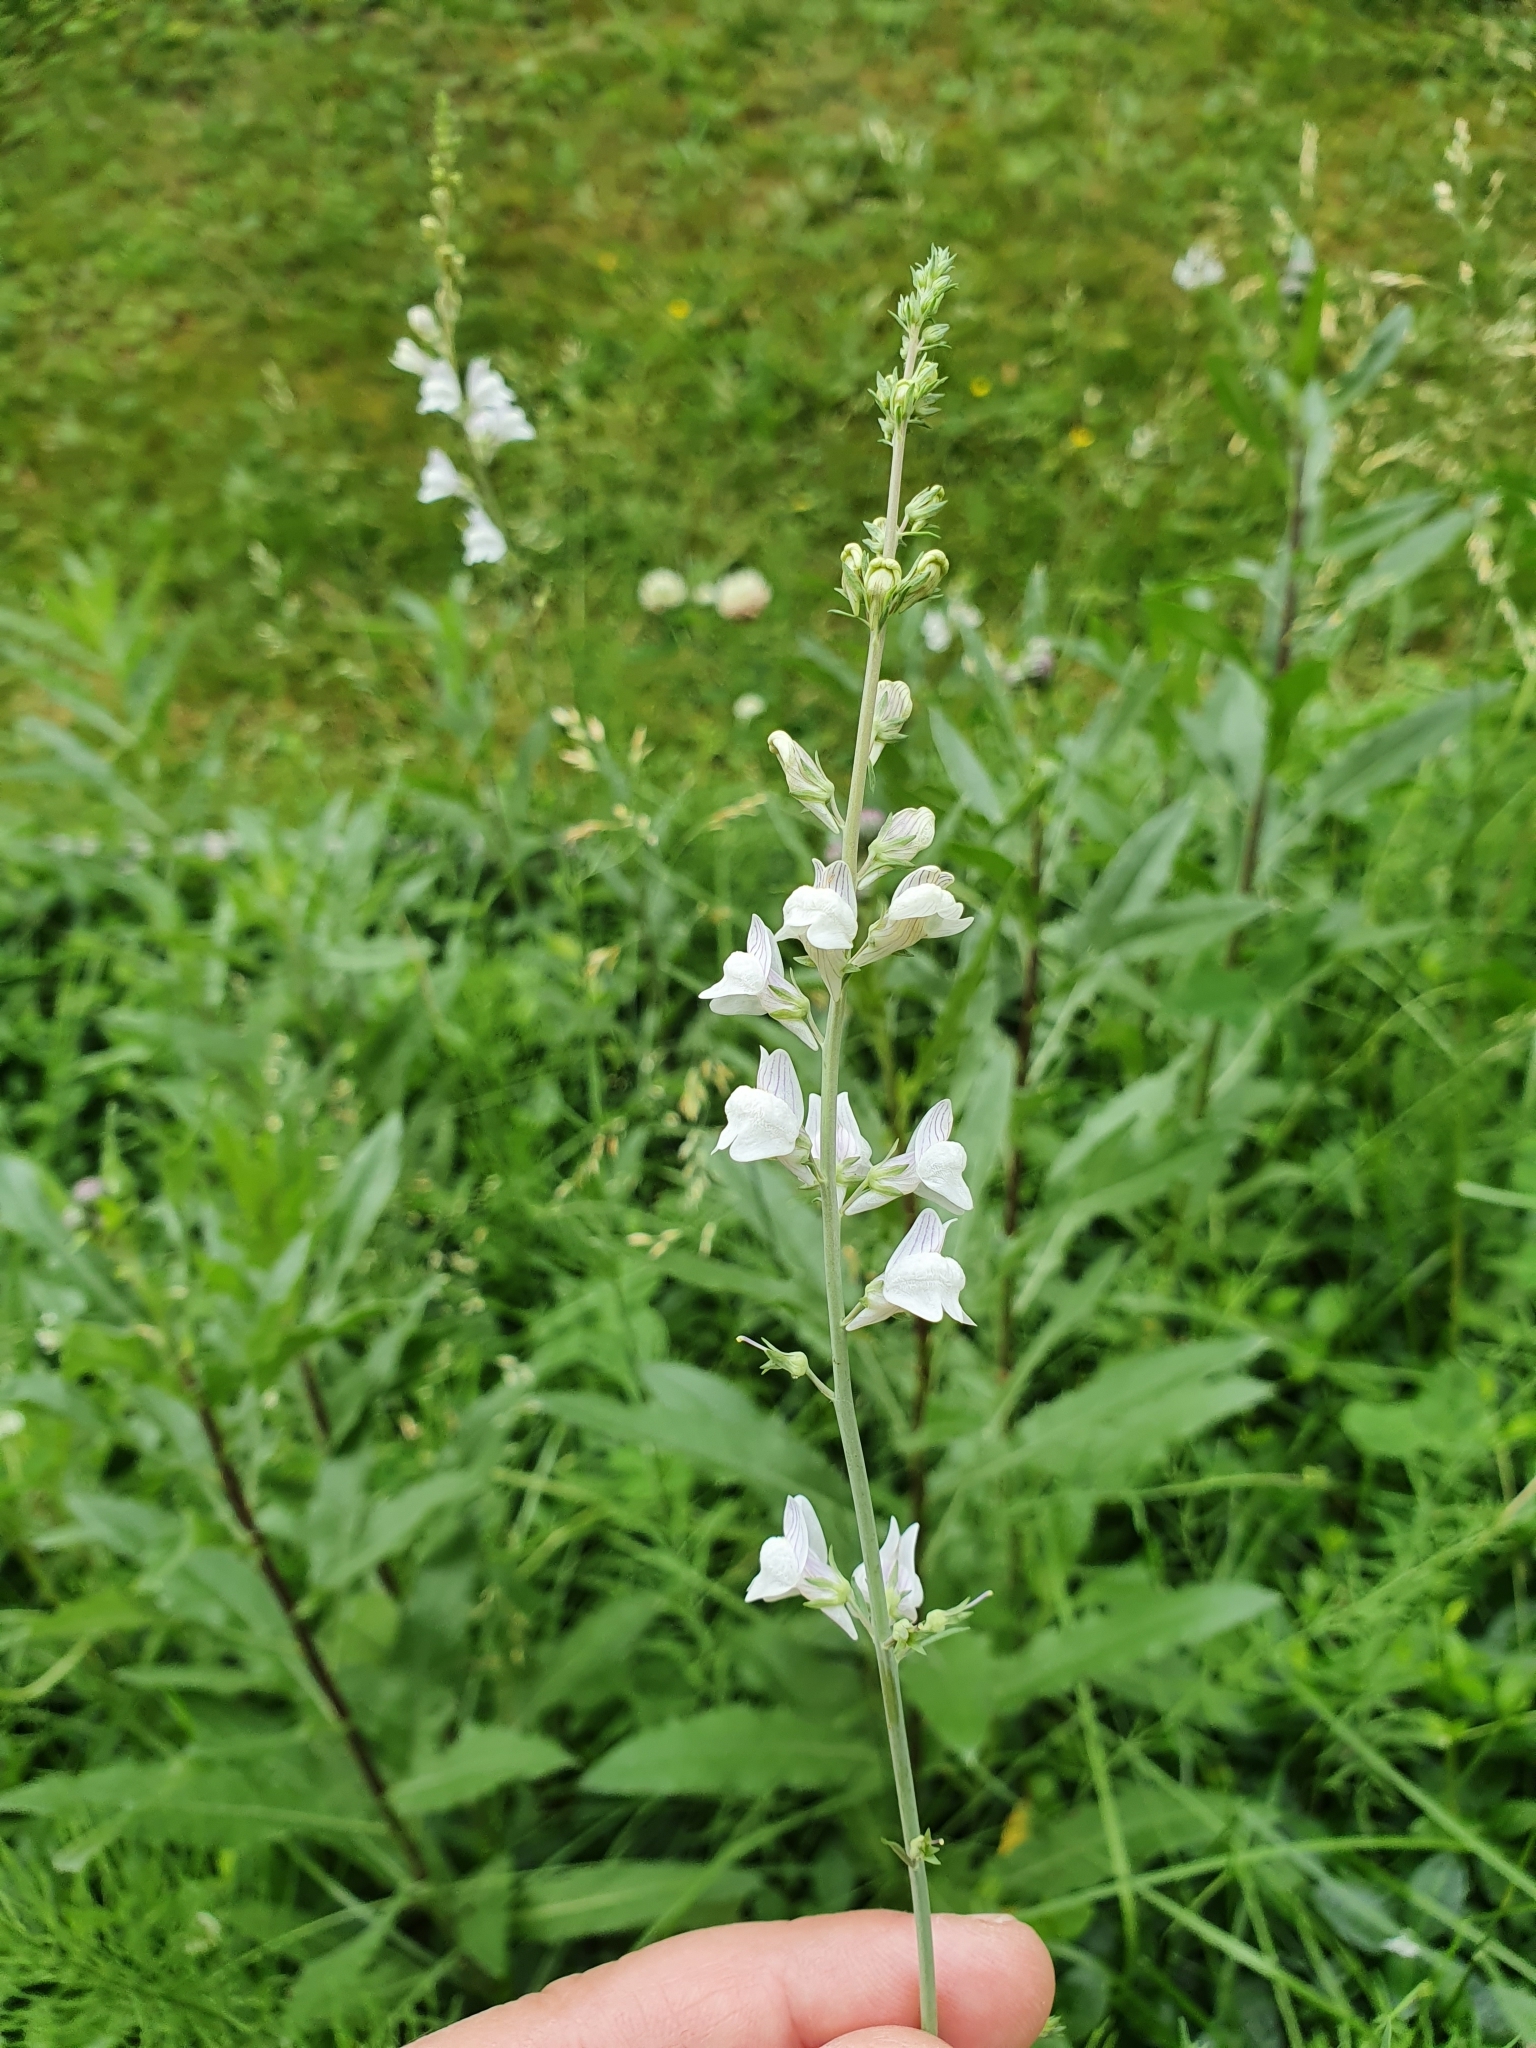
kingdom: Plantae
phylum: Tracheophyta
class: Magnoliopsida
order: Lamiales
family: Plantaginaceae
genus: Linaria
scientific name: Linaria repens
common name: Pale toadflax
